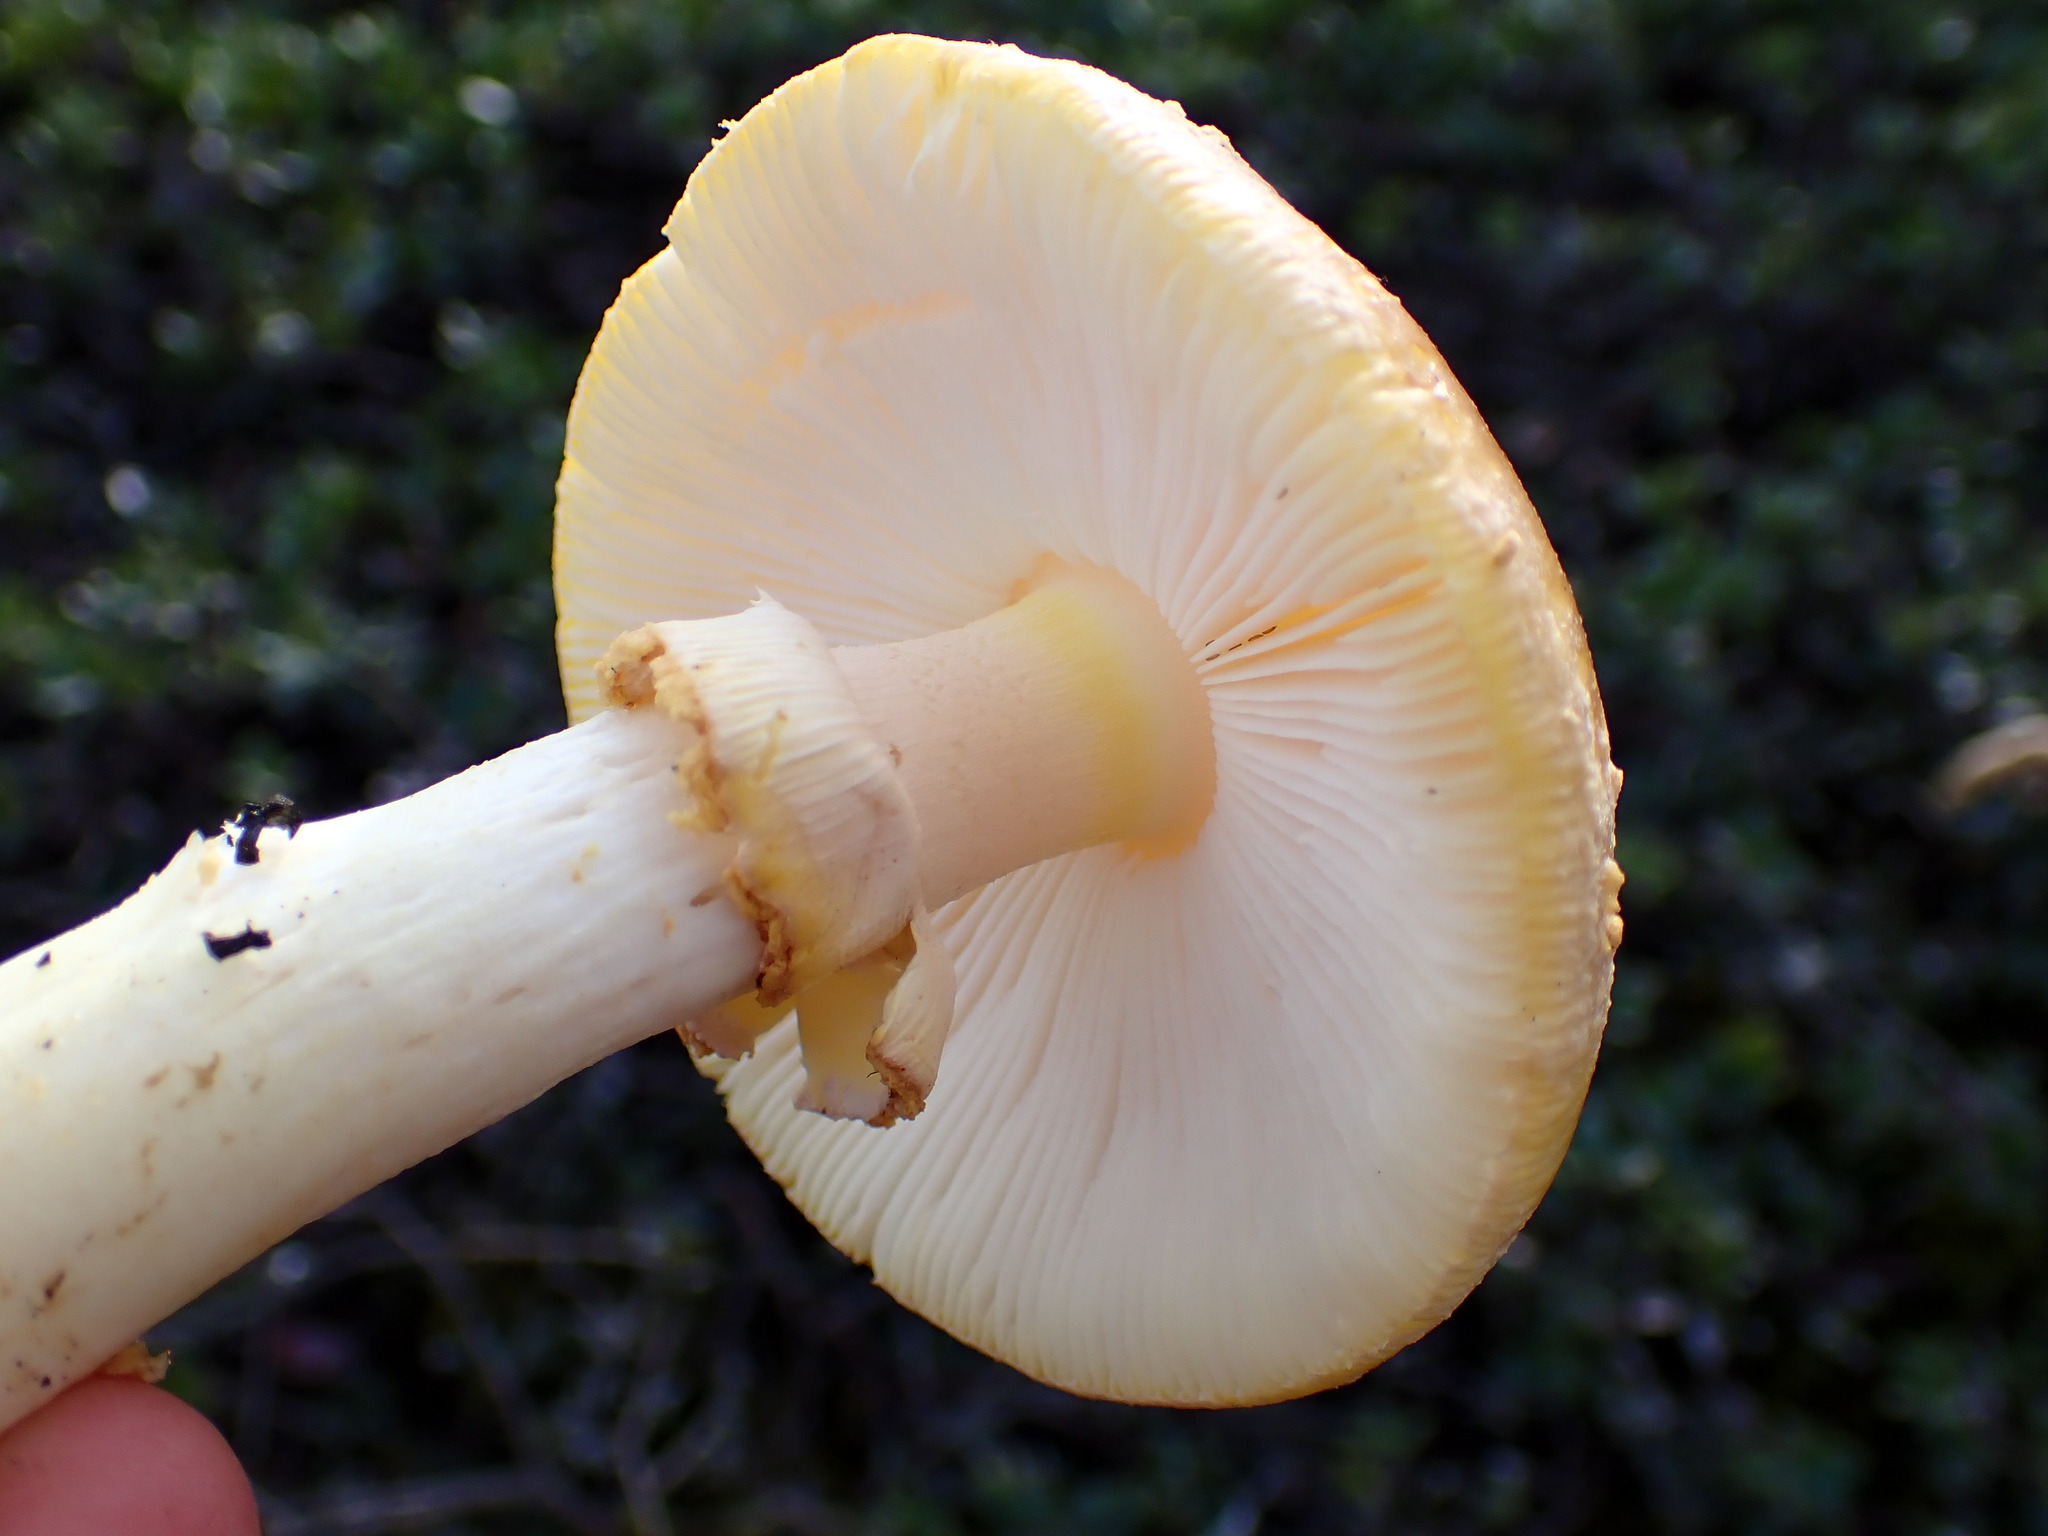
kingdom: Fungi
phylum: Basidiomycota
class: Agaricomycetes
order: Agaricales
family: Amanitaceae
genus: Amanita
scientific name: Amanita augusta
